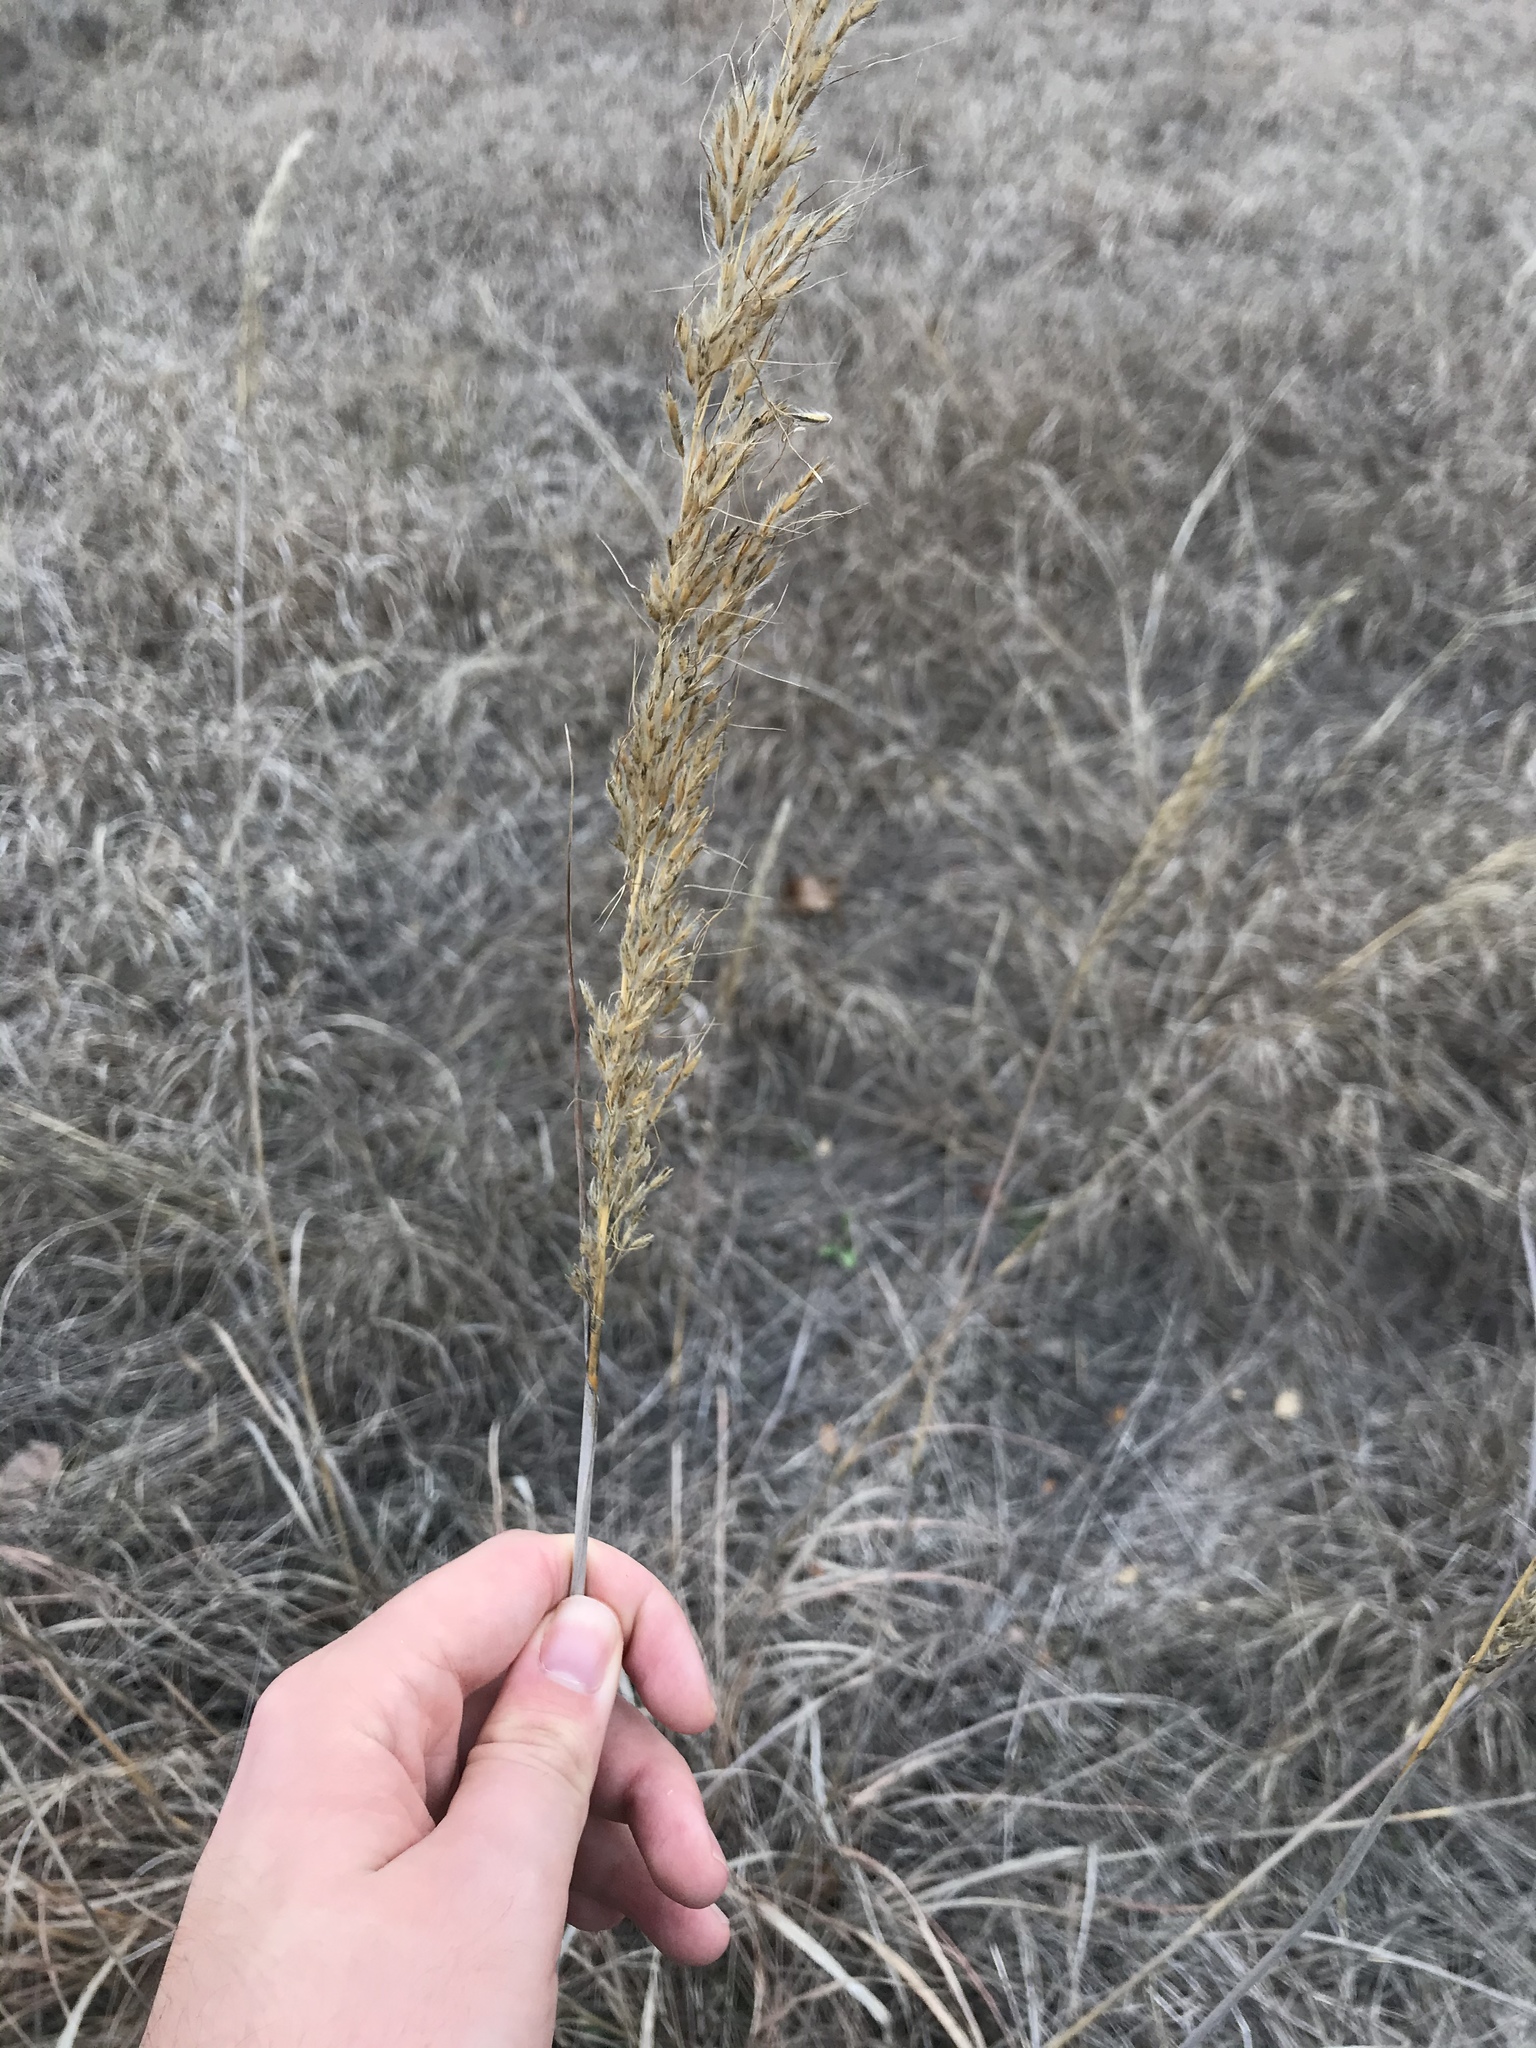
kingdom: Plantae
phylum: Tracheophyta
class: Liliopsida
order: Poales
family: Poaceae
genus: Sorghastrum
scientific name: Sorghastrum nutans
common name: Indian grass
